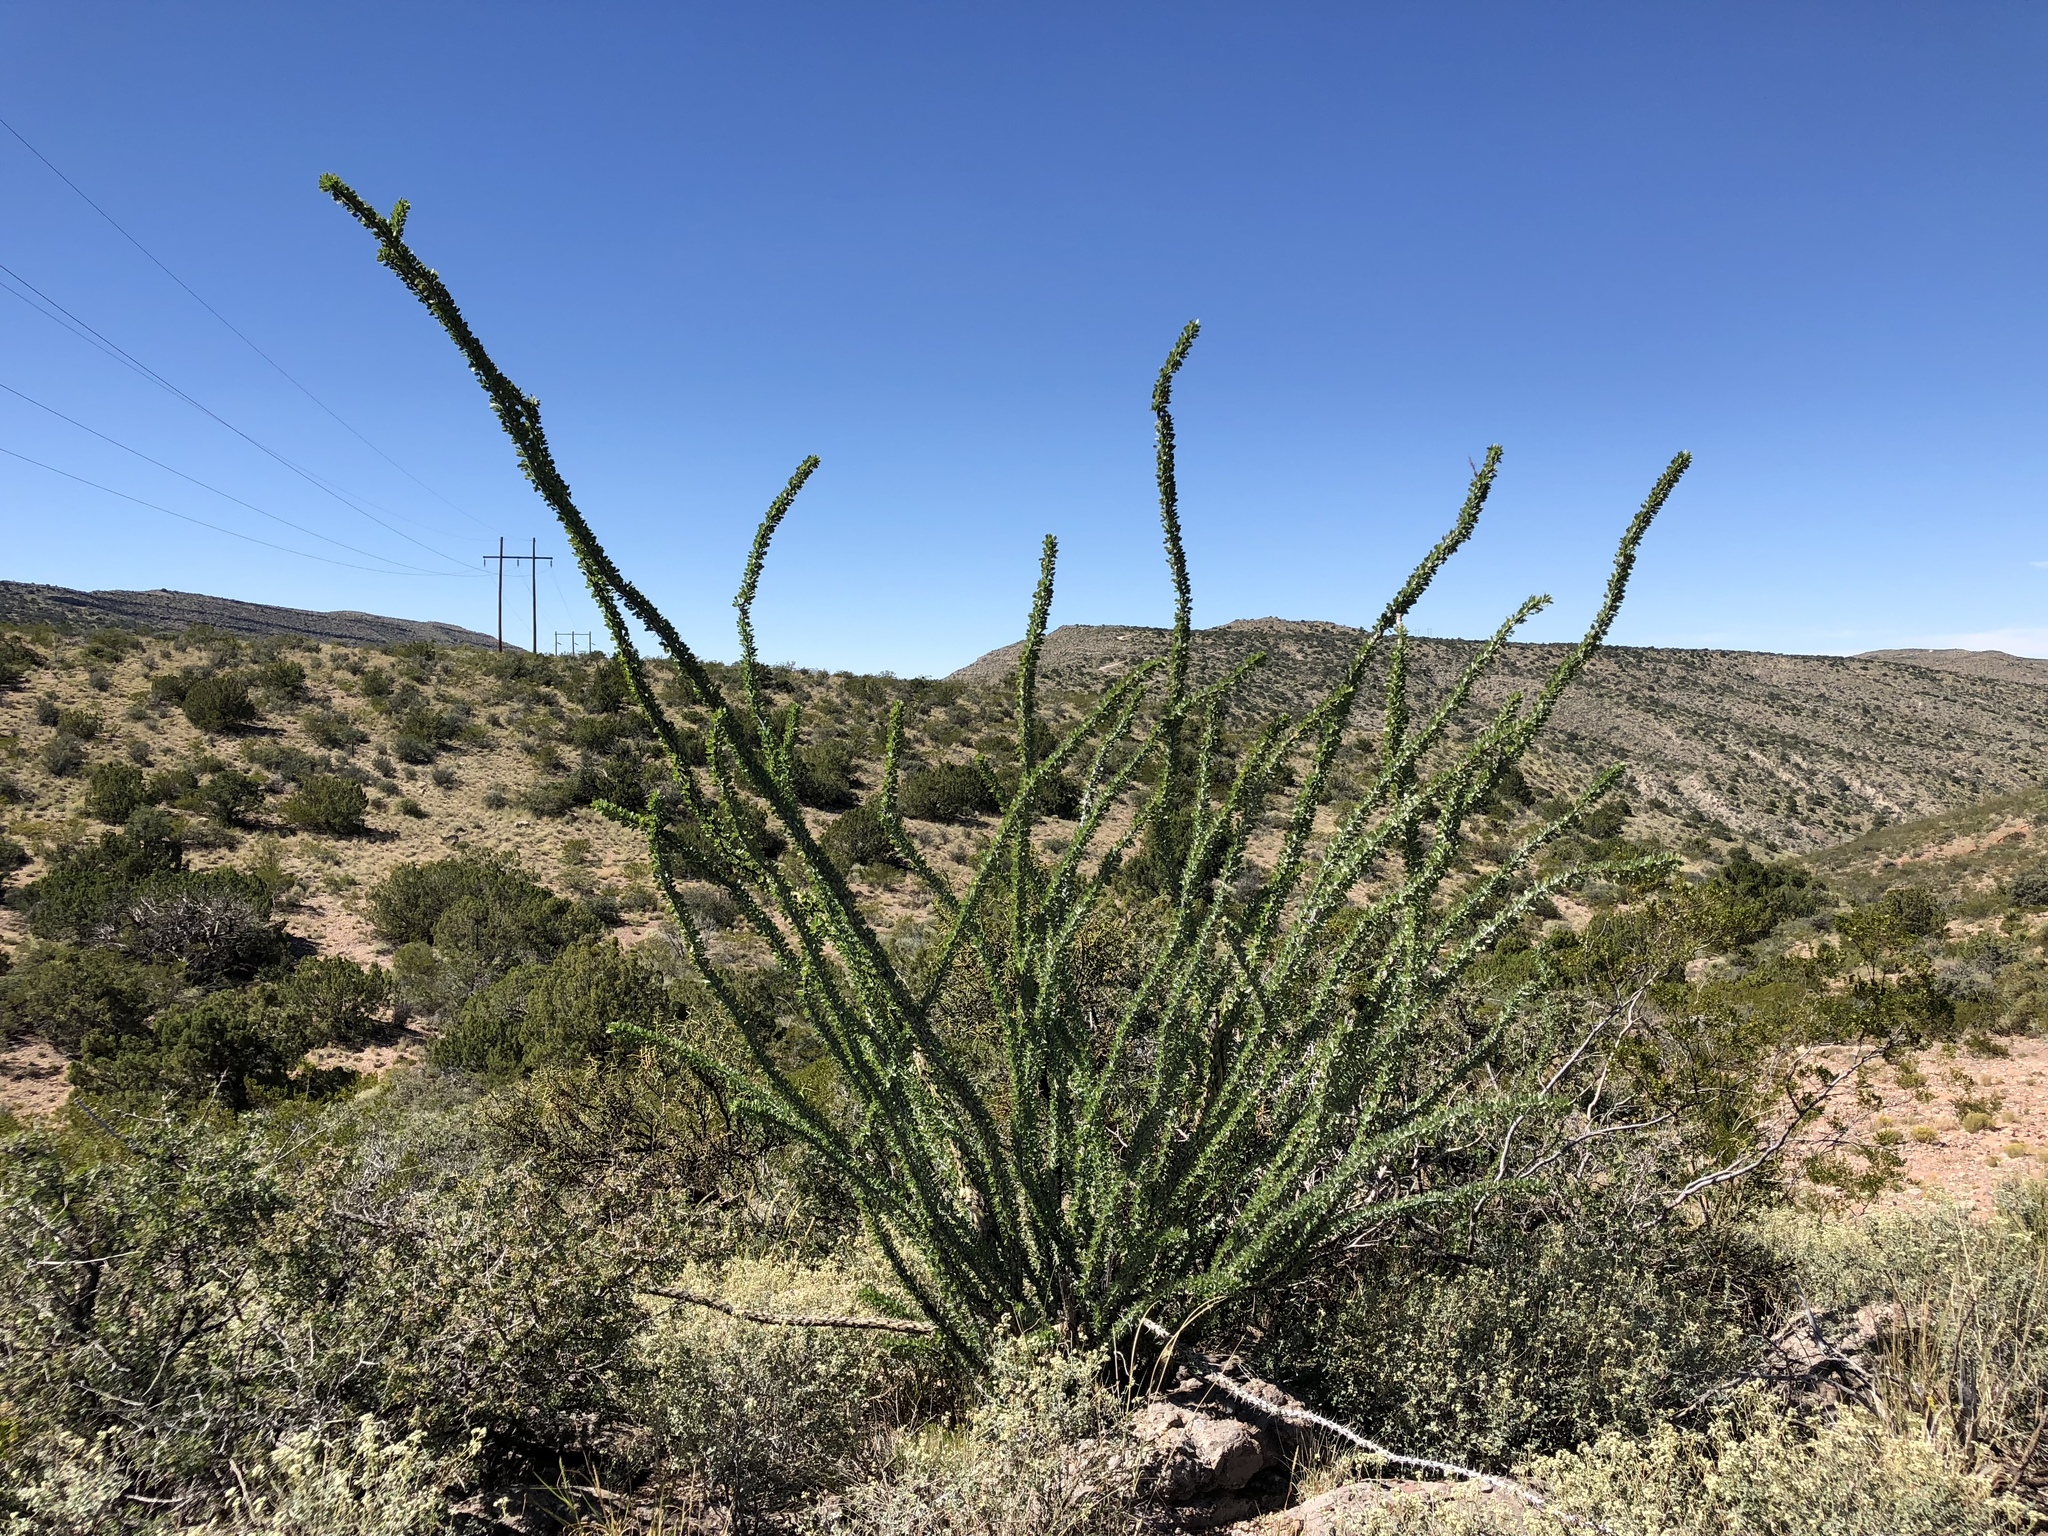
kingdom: Plantae
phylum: Tracheophyta
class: Magnoliopsida
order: Ericales
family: Fouquieriaceae
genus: Fouquieria
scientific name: Fouquieria splendens
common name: Vine-cactus
